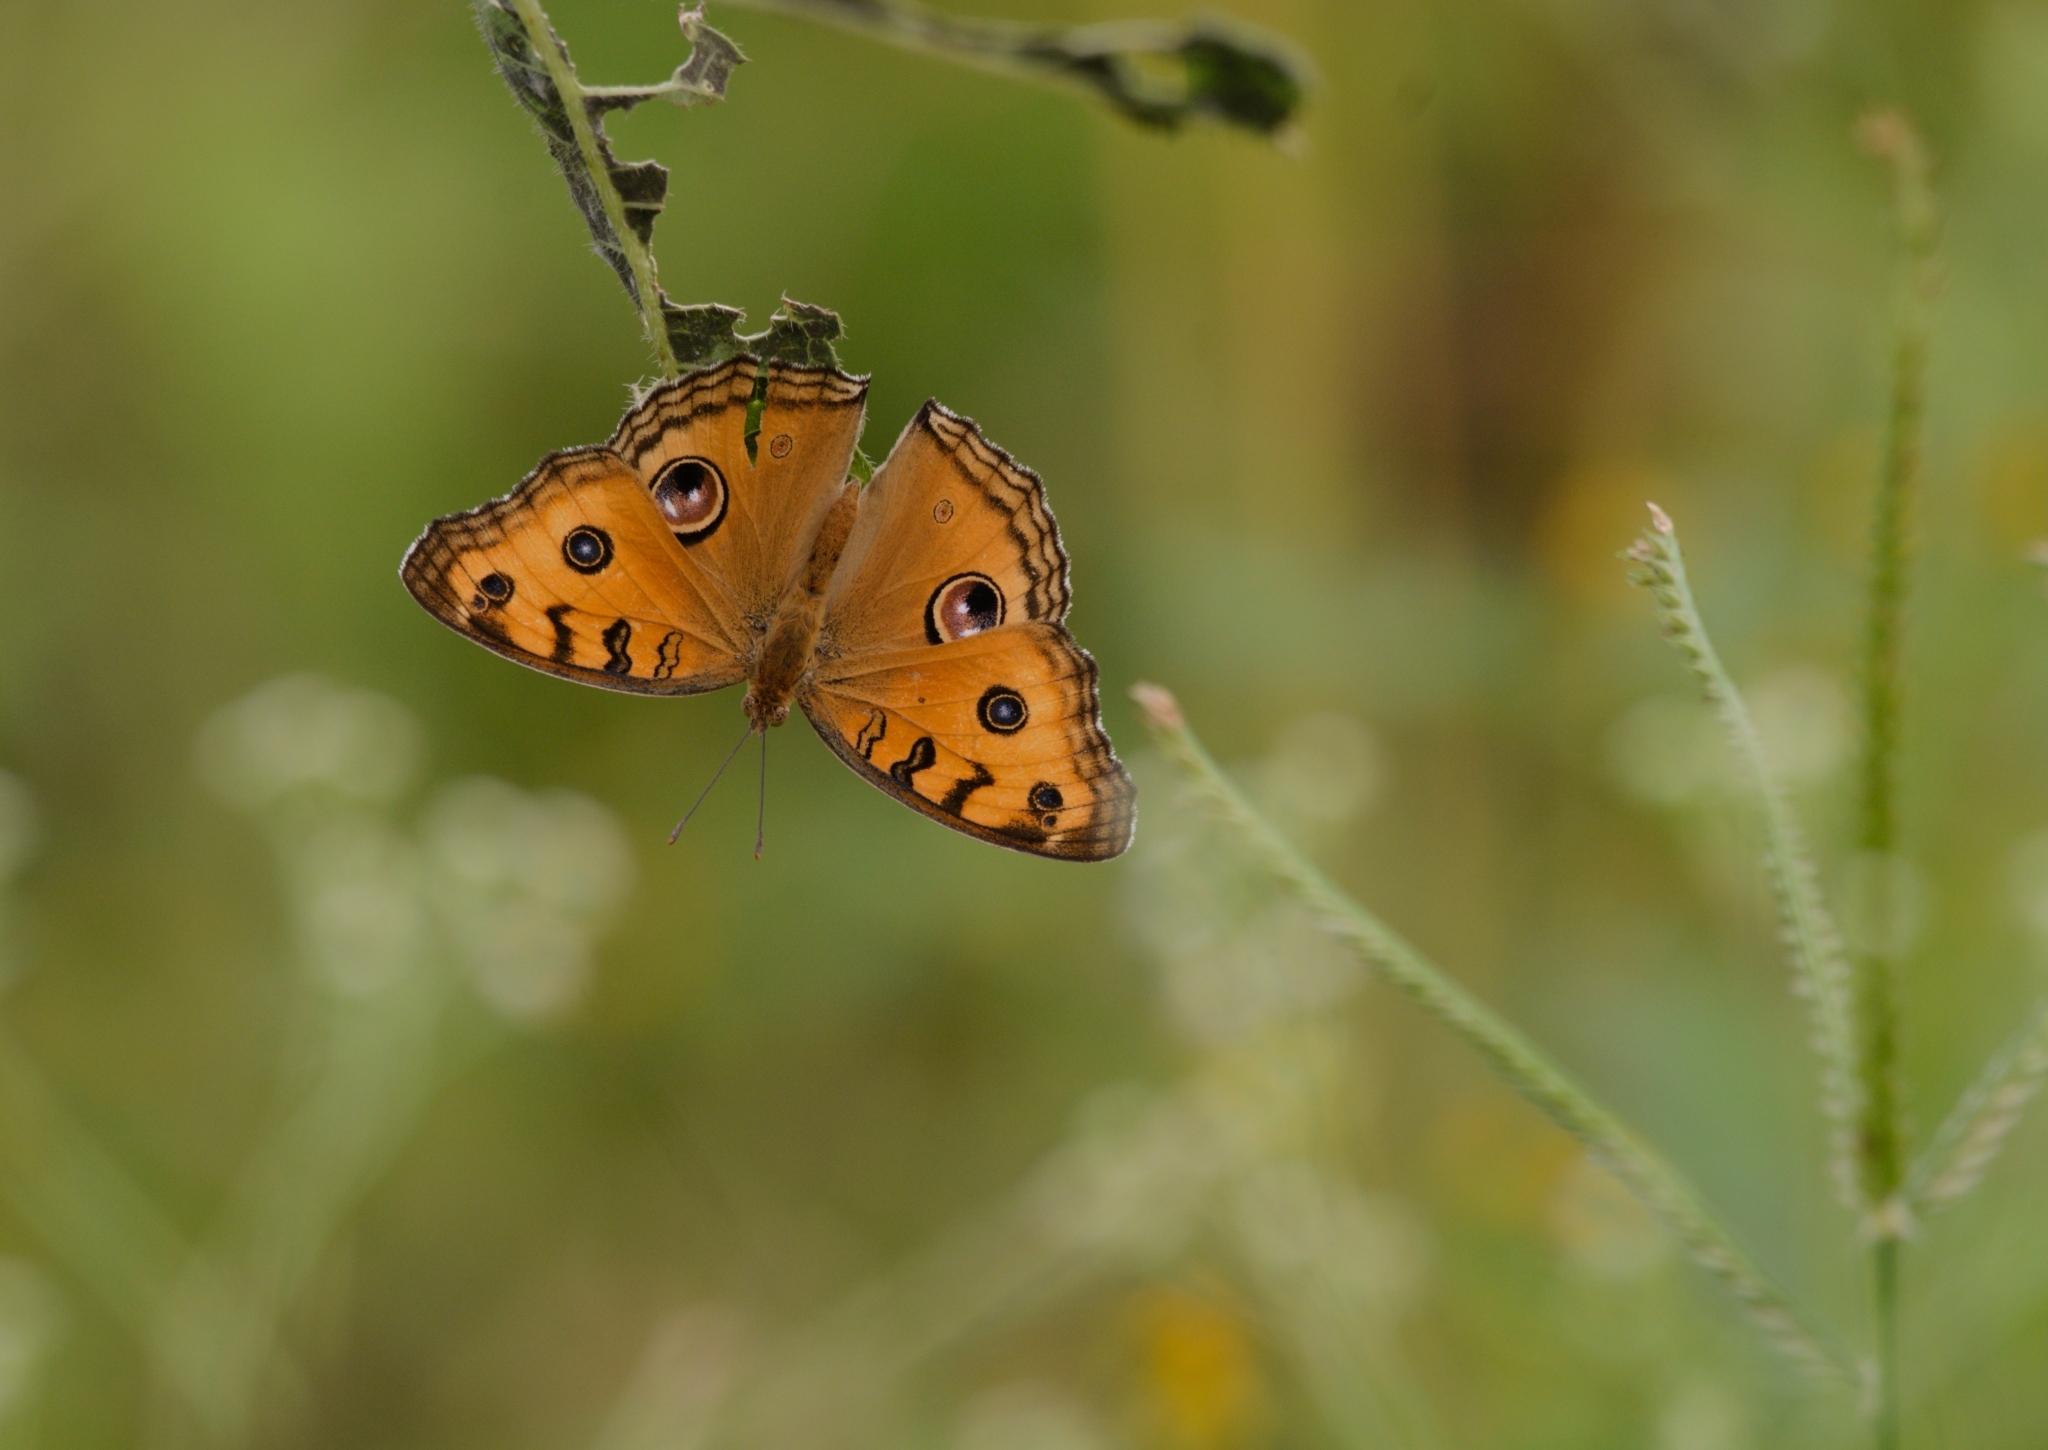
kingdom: Animalia
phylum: Arthropoda
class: Insecta
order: Lepidoptera
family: Nymphalidae
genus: Junonia
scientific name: Junonia almana
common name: Peacock pansy
